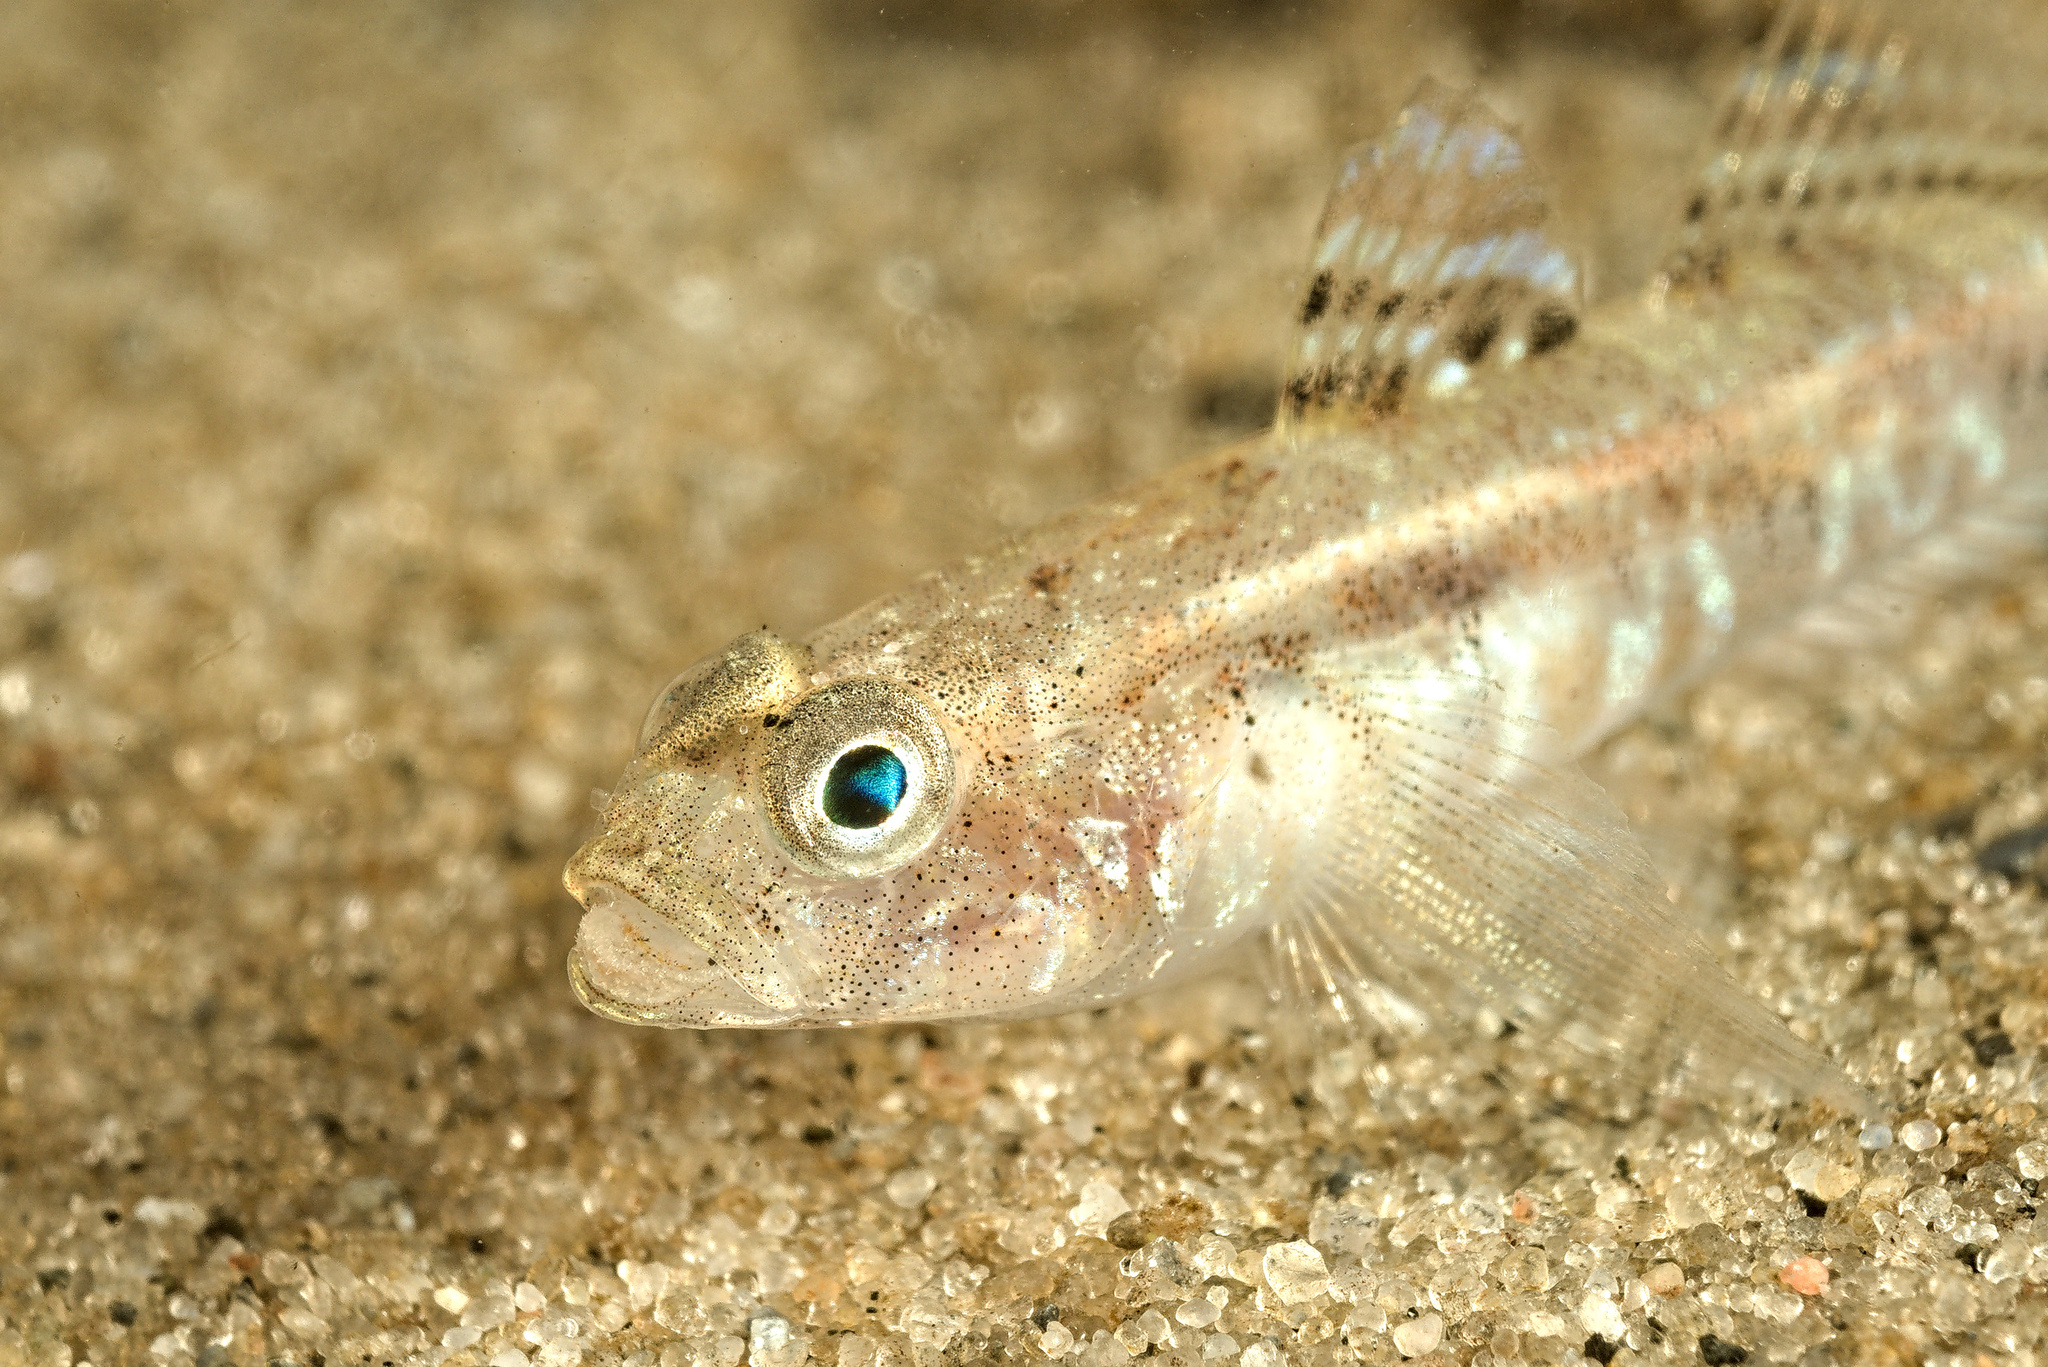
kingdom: Animalia
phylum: Chordata
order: Perciformes
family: Gobiidae
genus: Pomatoschistus
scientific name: Pomatoschistus pictus
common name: Painted goby
